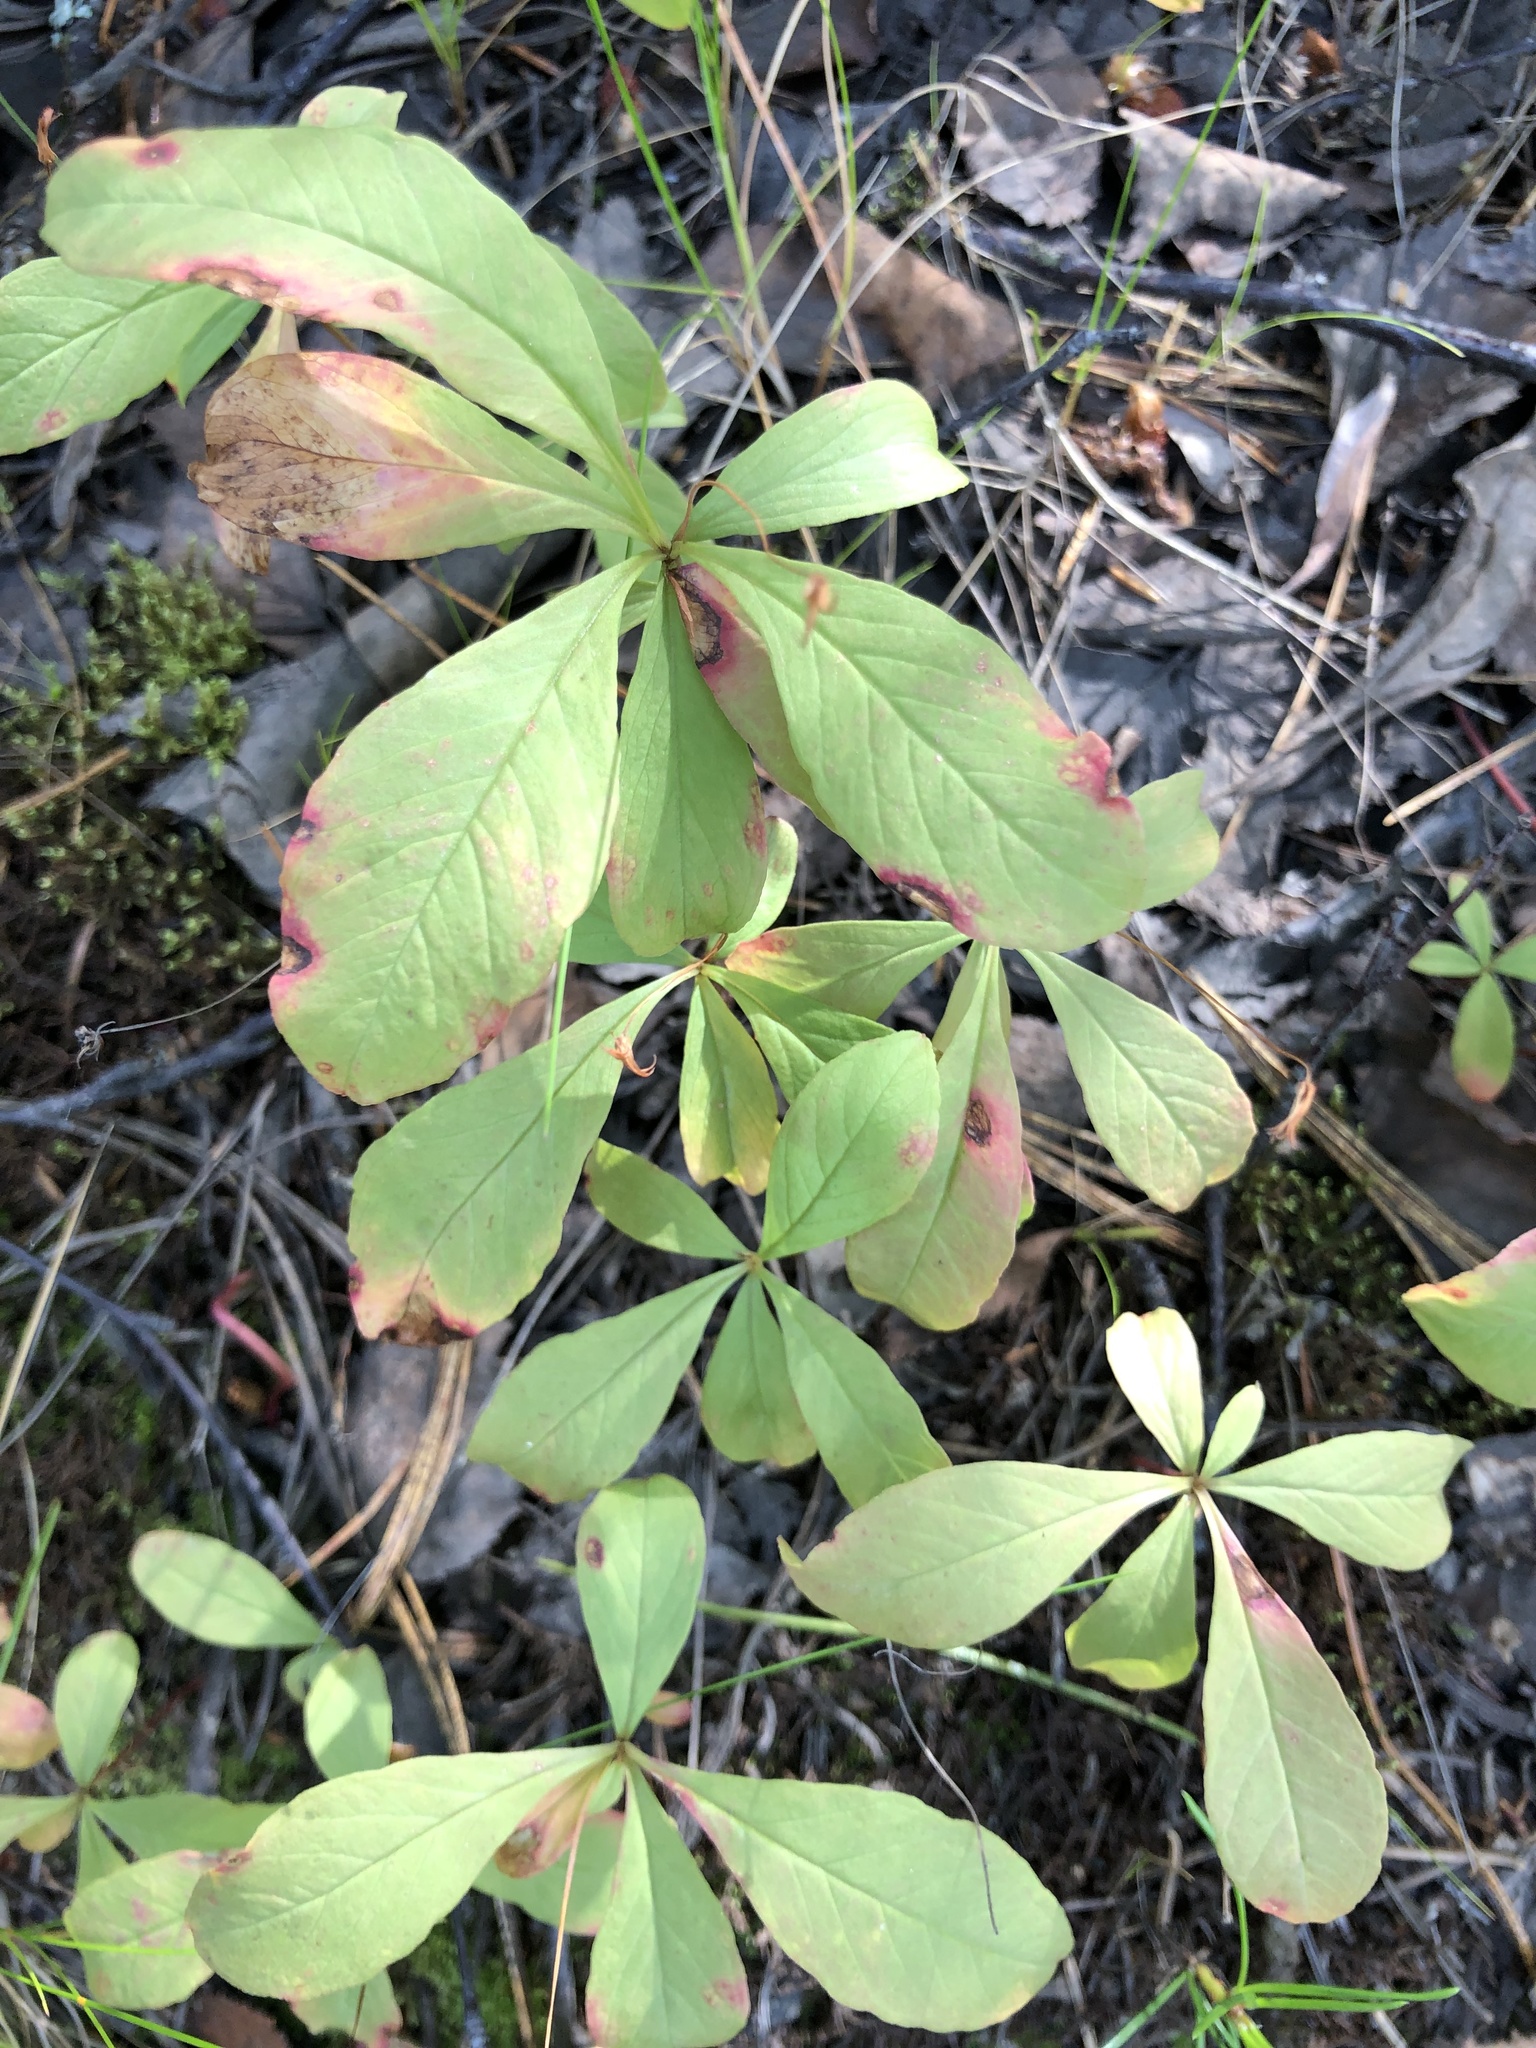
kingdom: Plantae
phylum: Tracheophyta
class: Magnoliopsida
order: Ericales
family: Primulaceae
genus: Lysimachia
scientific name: Lysimachia europaea
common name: Arctic starflower
